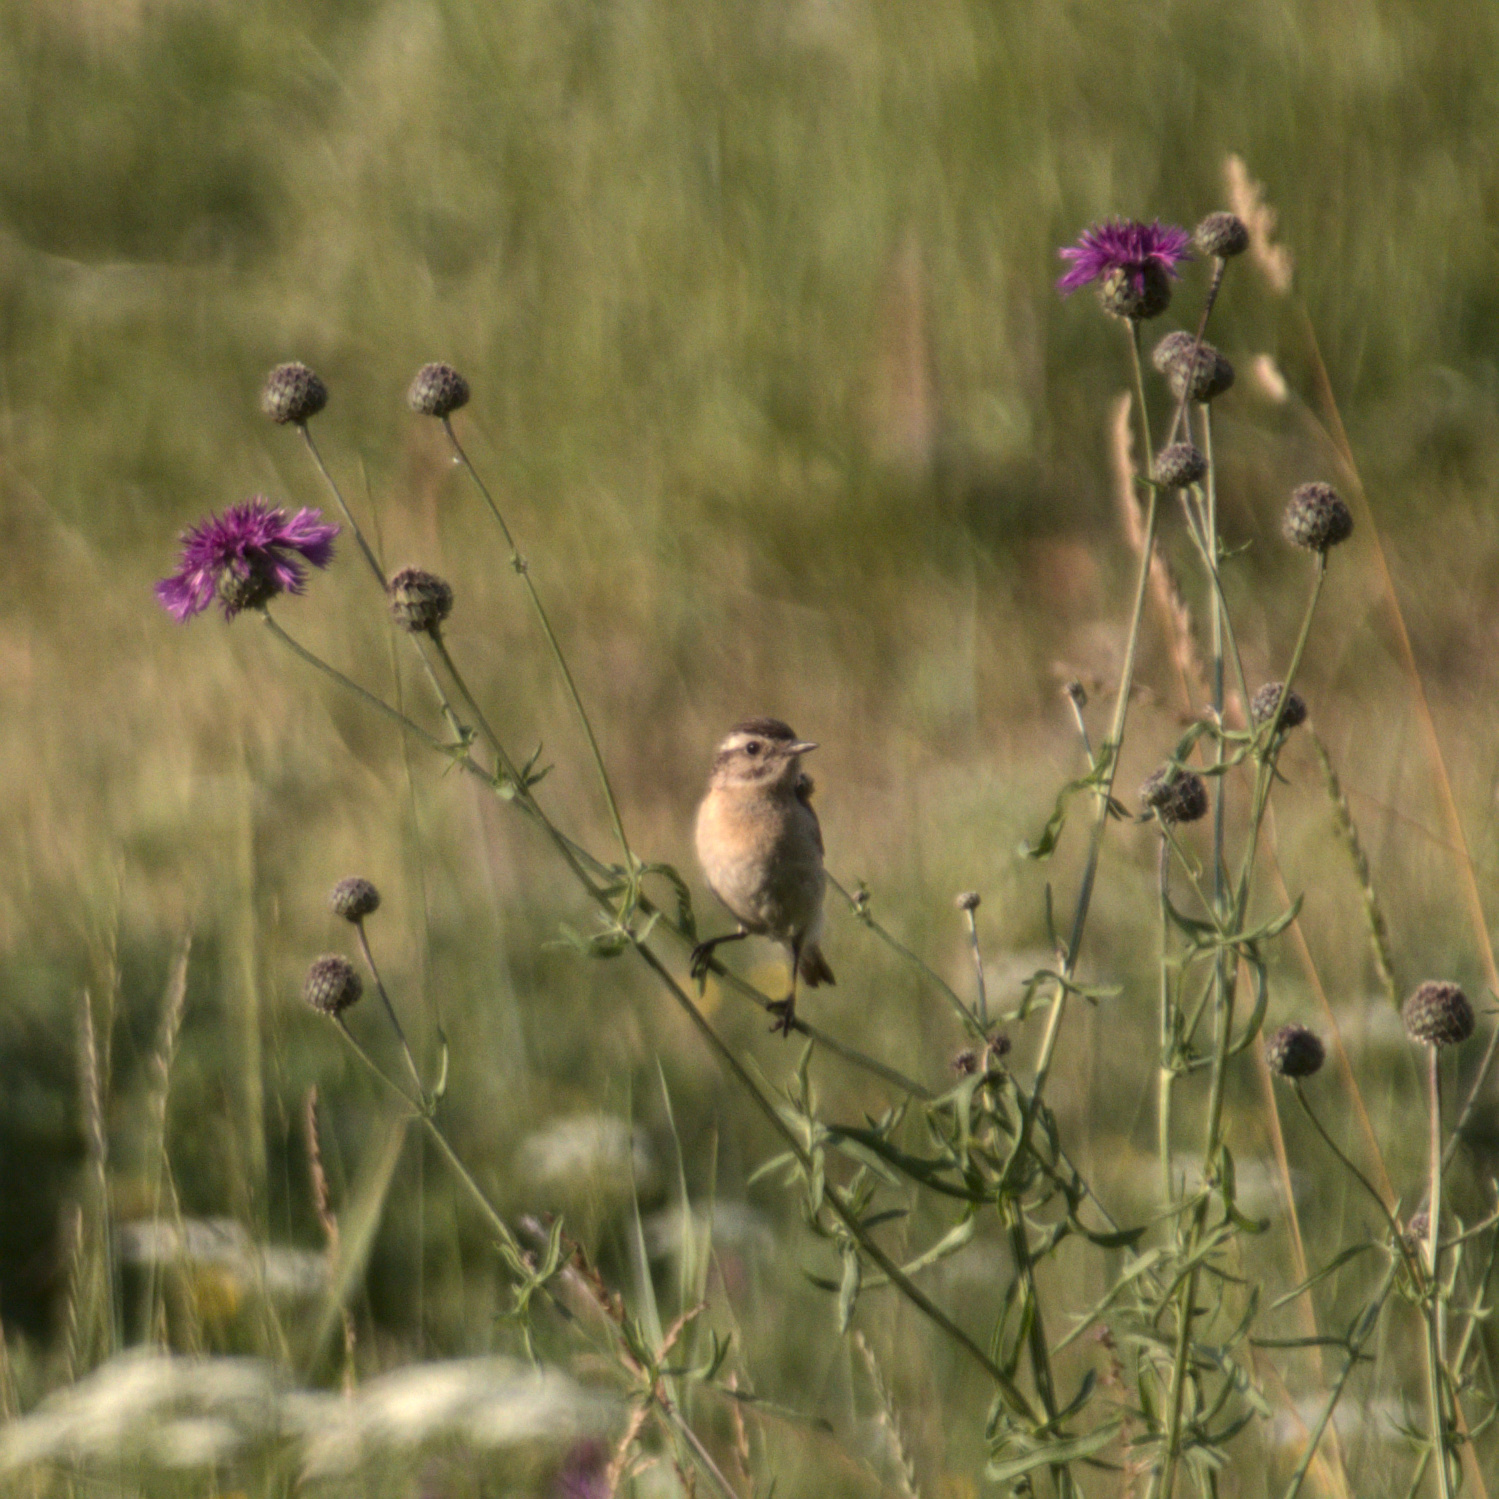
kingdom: Animalia
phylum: Chordata
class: Aves
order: Passeriformes
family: Muscicapidae
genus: Saxicola
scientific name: Saxicola rubetra
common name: Whinchat
